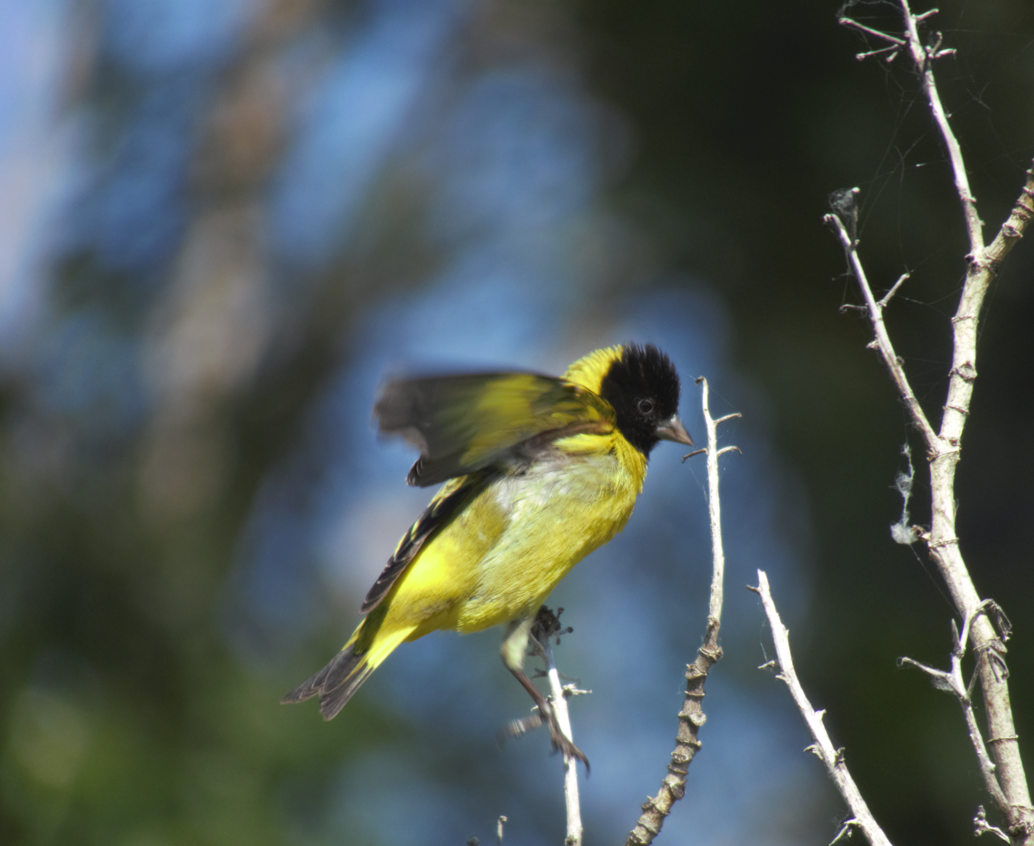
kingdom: Animalia
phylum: Chordata
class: Aves
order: Passeriformes
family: Fringillidae
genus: Spinus
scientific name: Spinus magellanicus
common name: Hooded siskin
